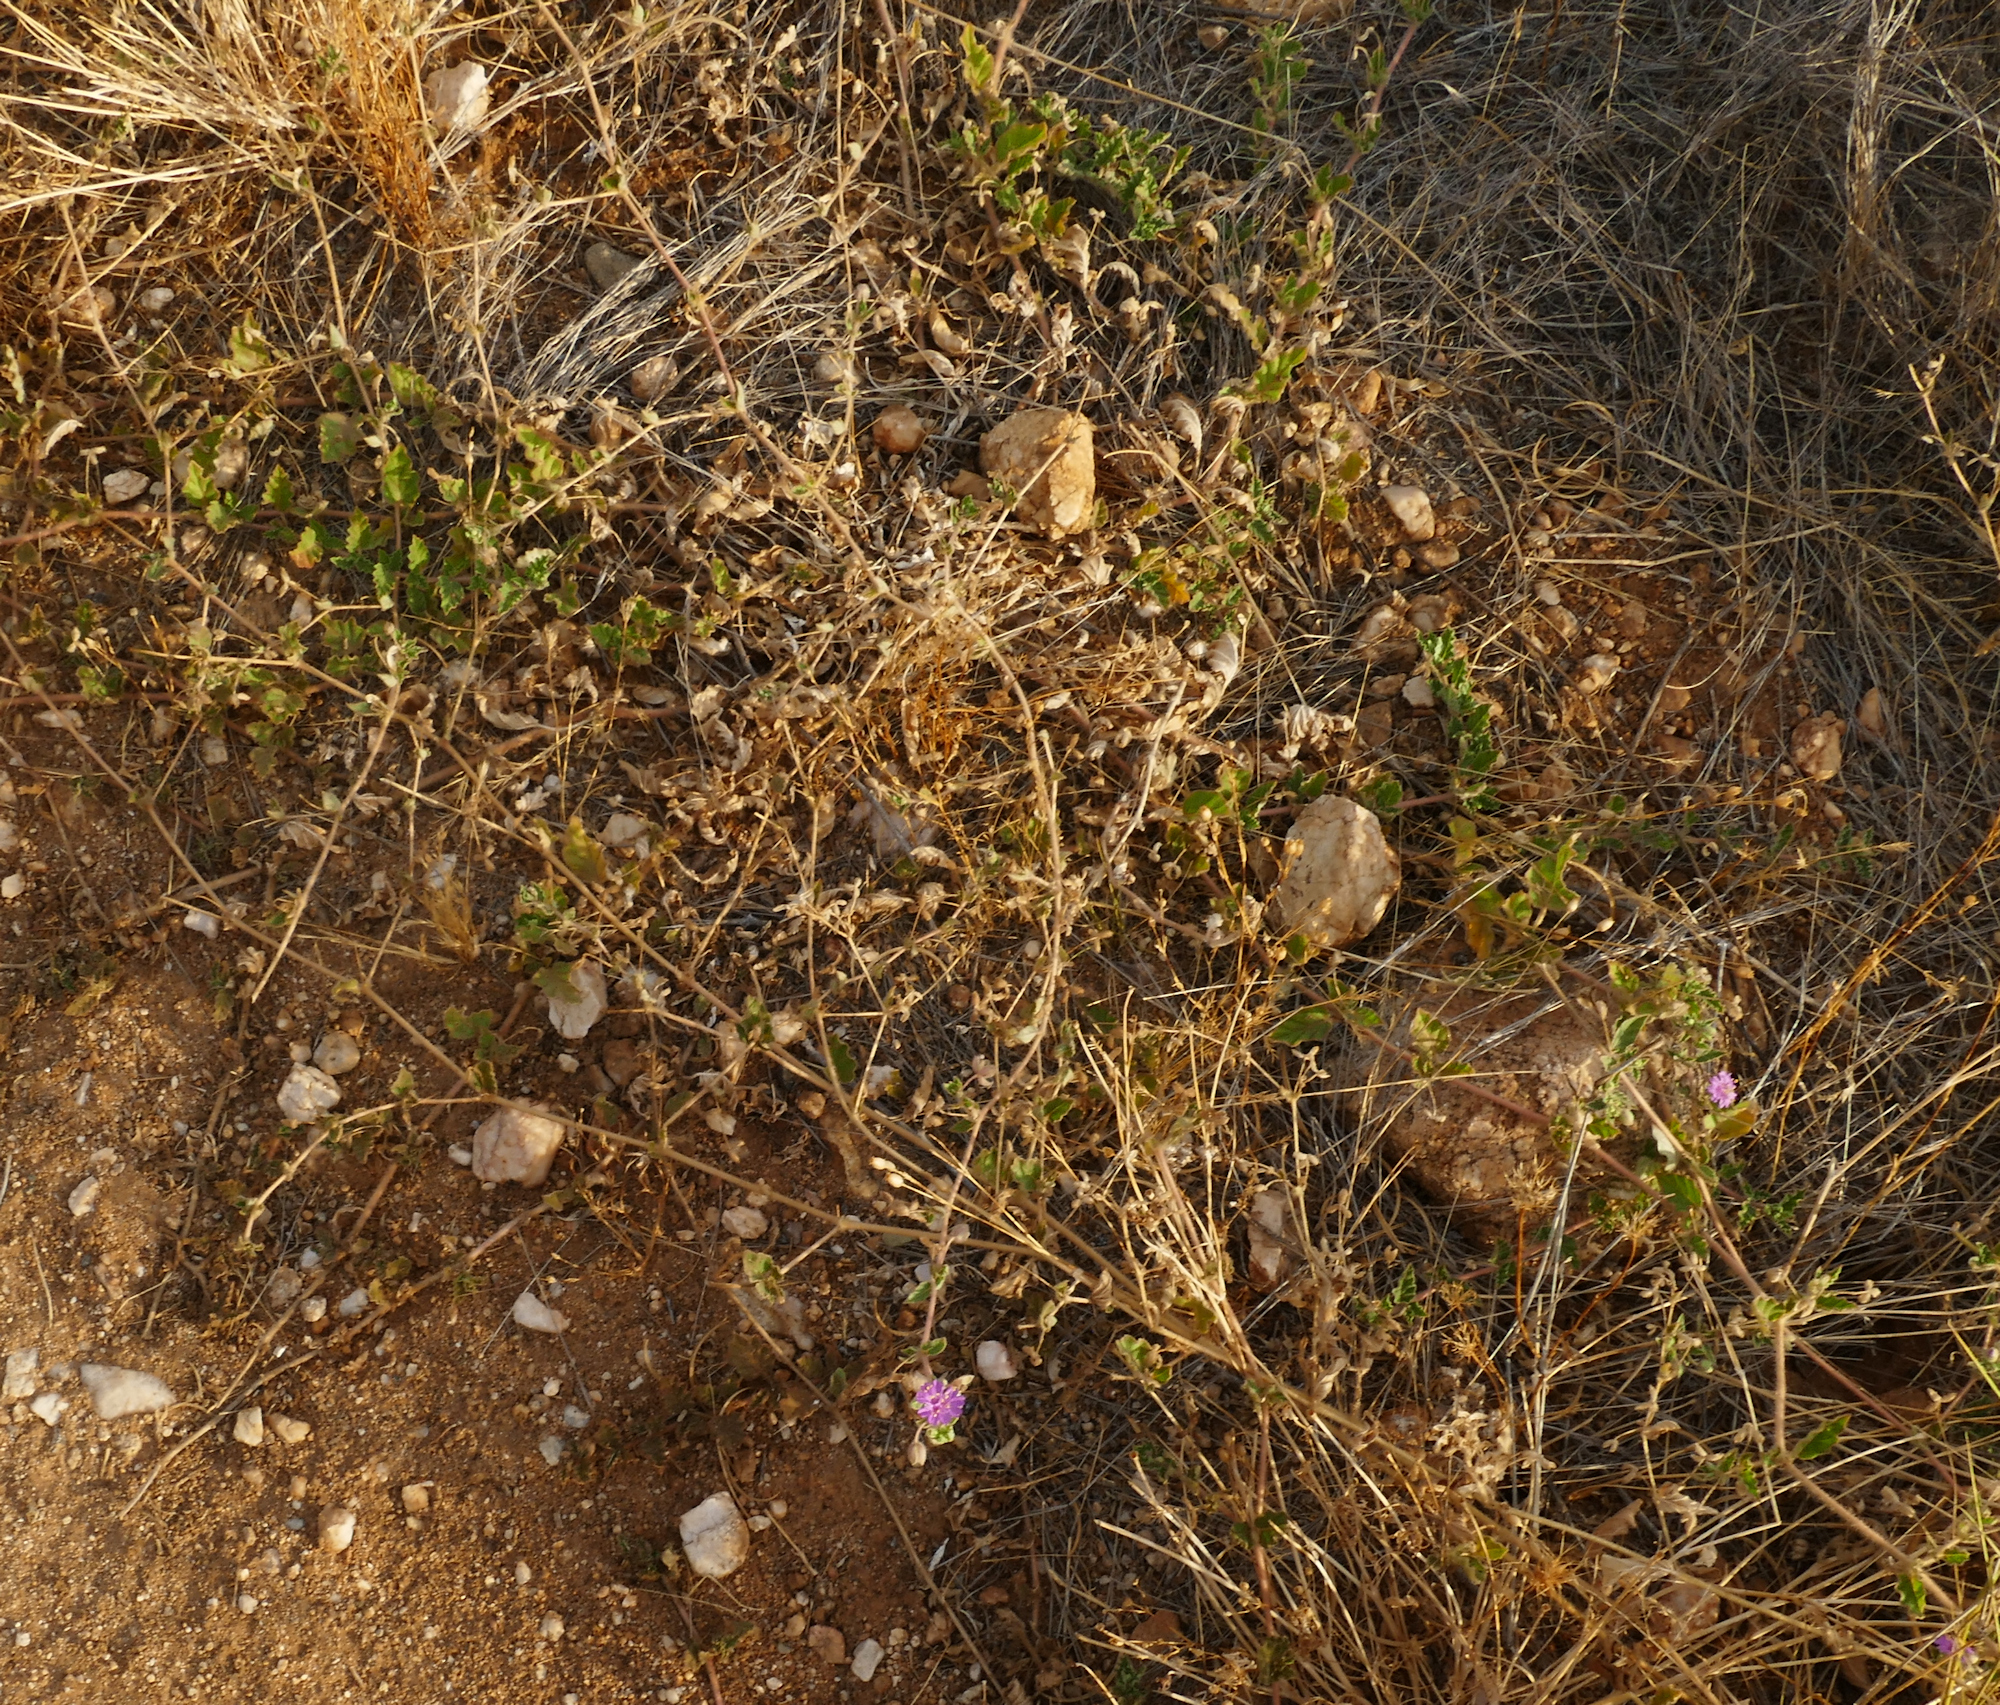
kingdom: Plantae
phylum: Tracheophyta
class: Magnoliopsida
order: Caryophyllales
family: Nyctaginaceae
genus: Allionia
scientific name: Allionia incarnata
